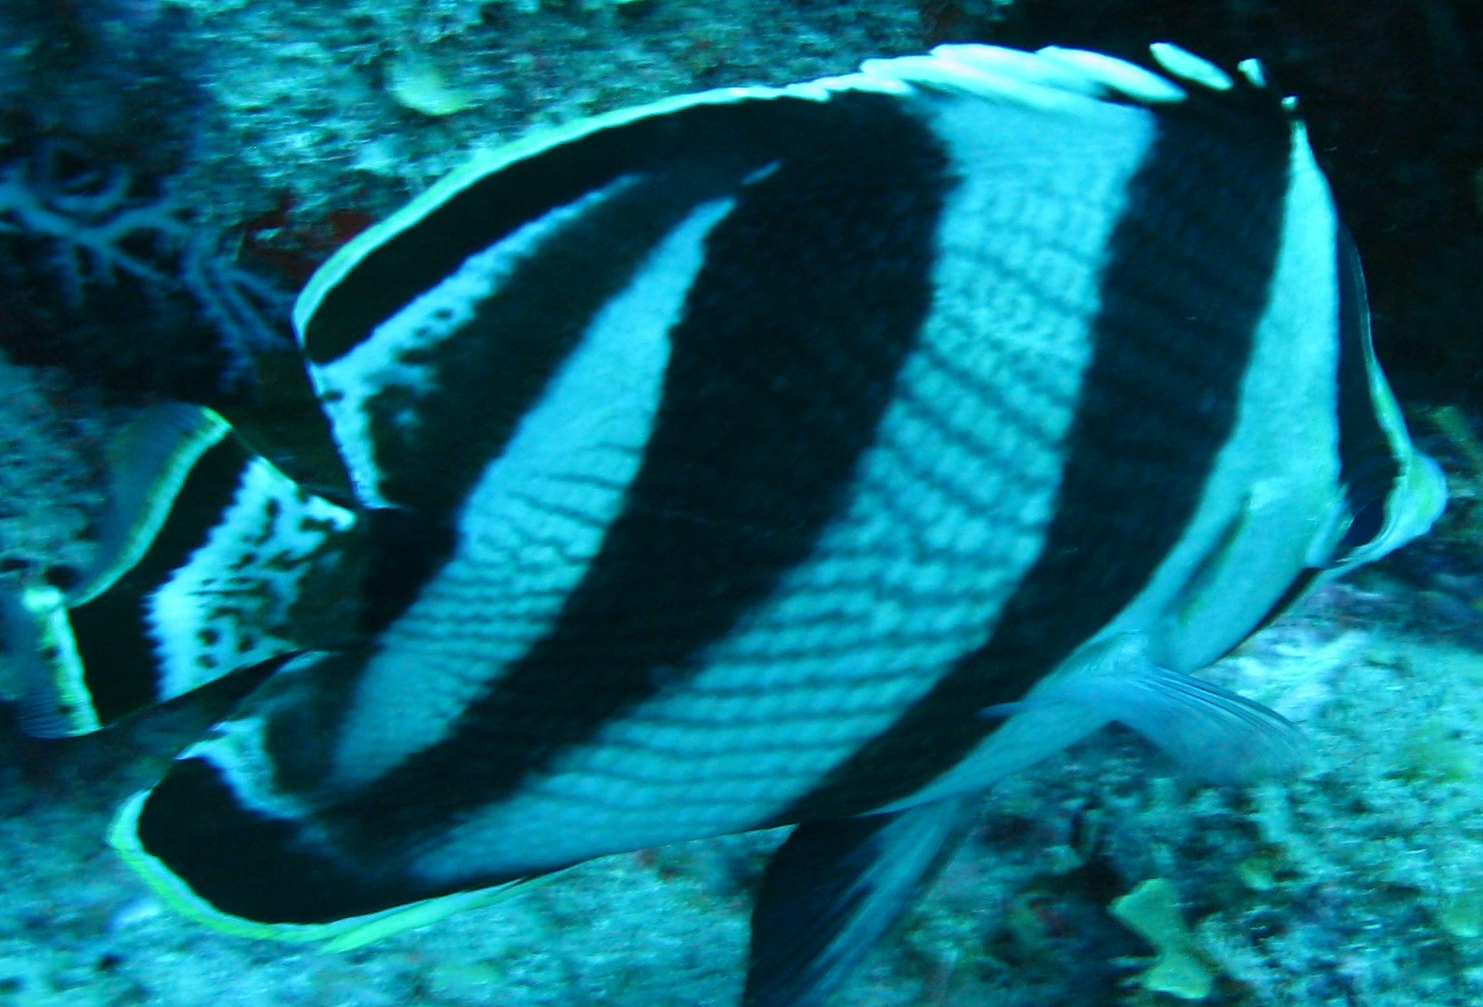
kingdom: Animalia
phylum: Chordata
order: Perciformes
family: Chaetodontidae
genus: Chaetodon
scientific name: Chaetodon striatus
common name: Banded butterflyfish
